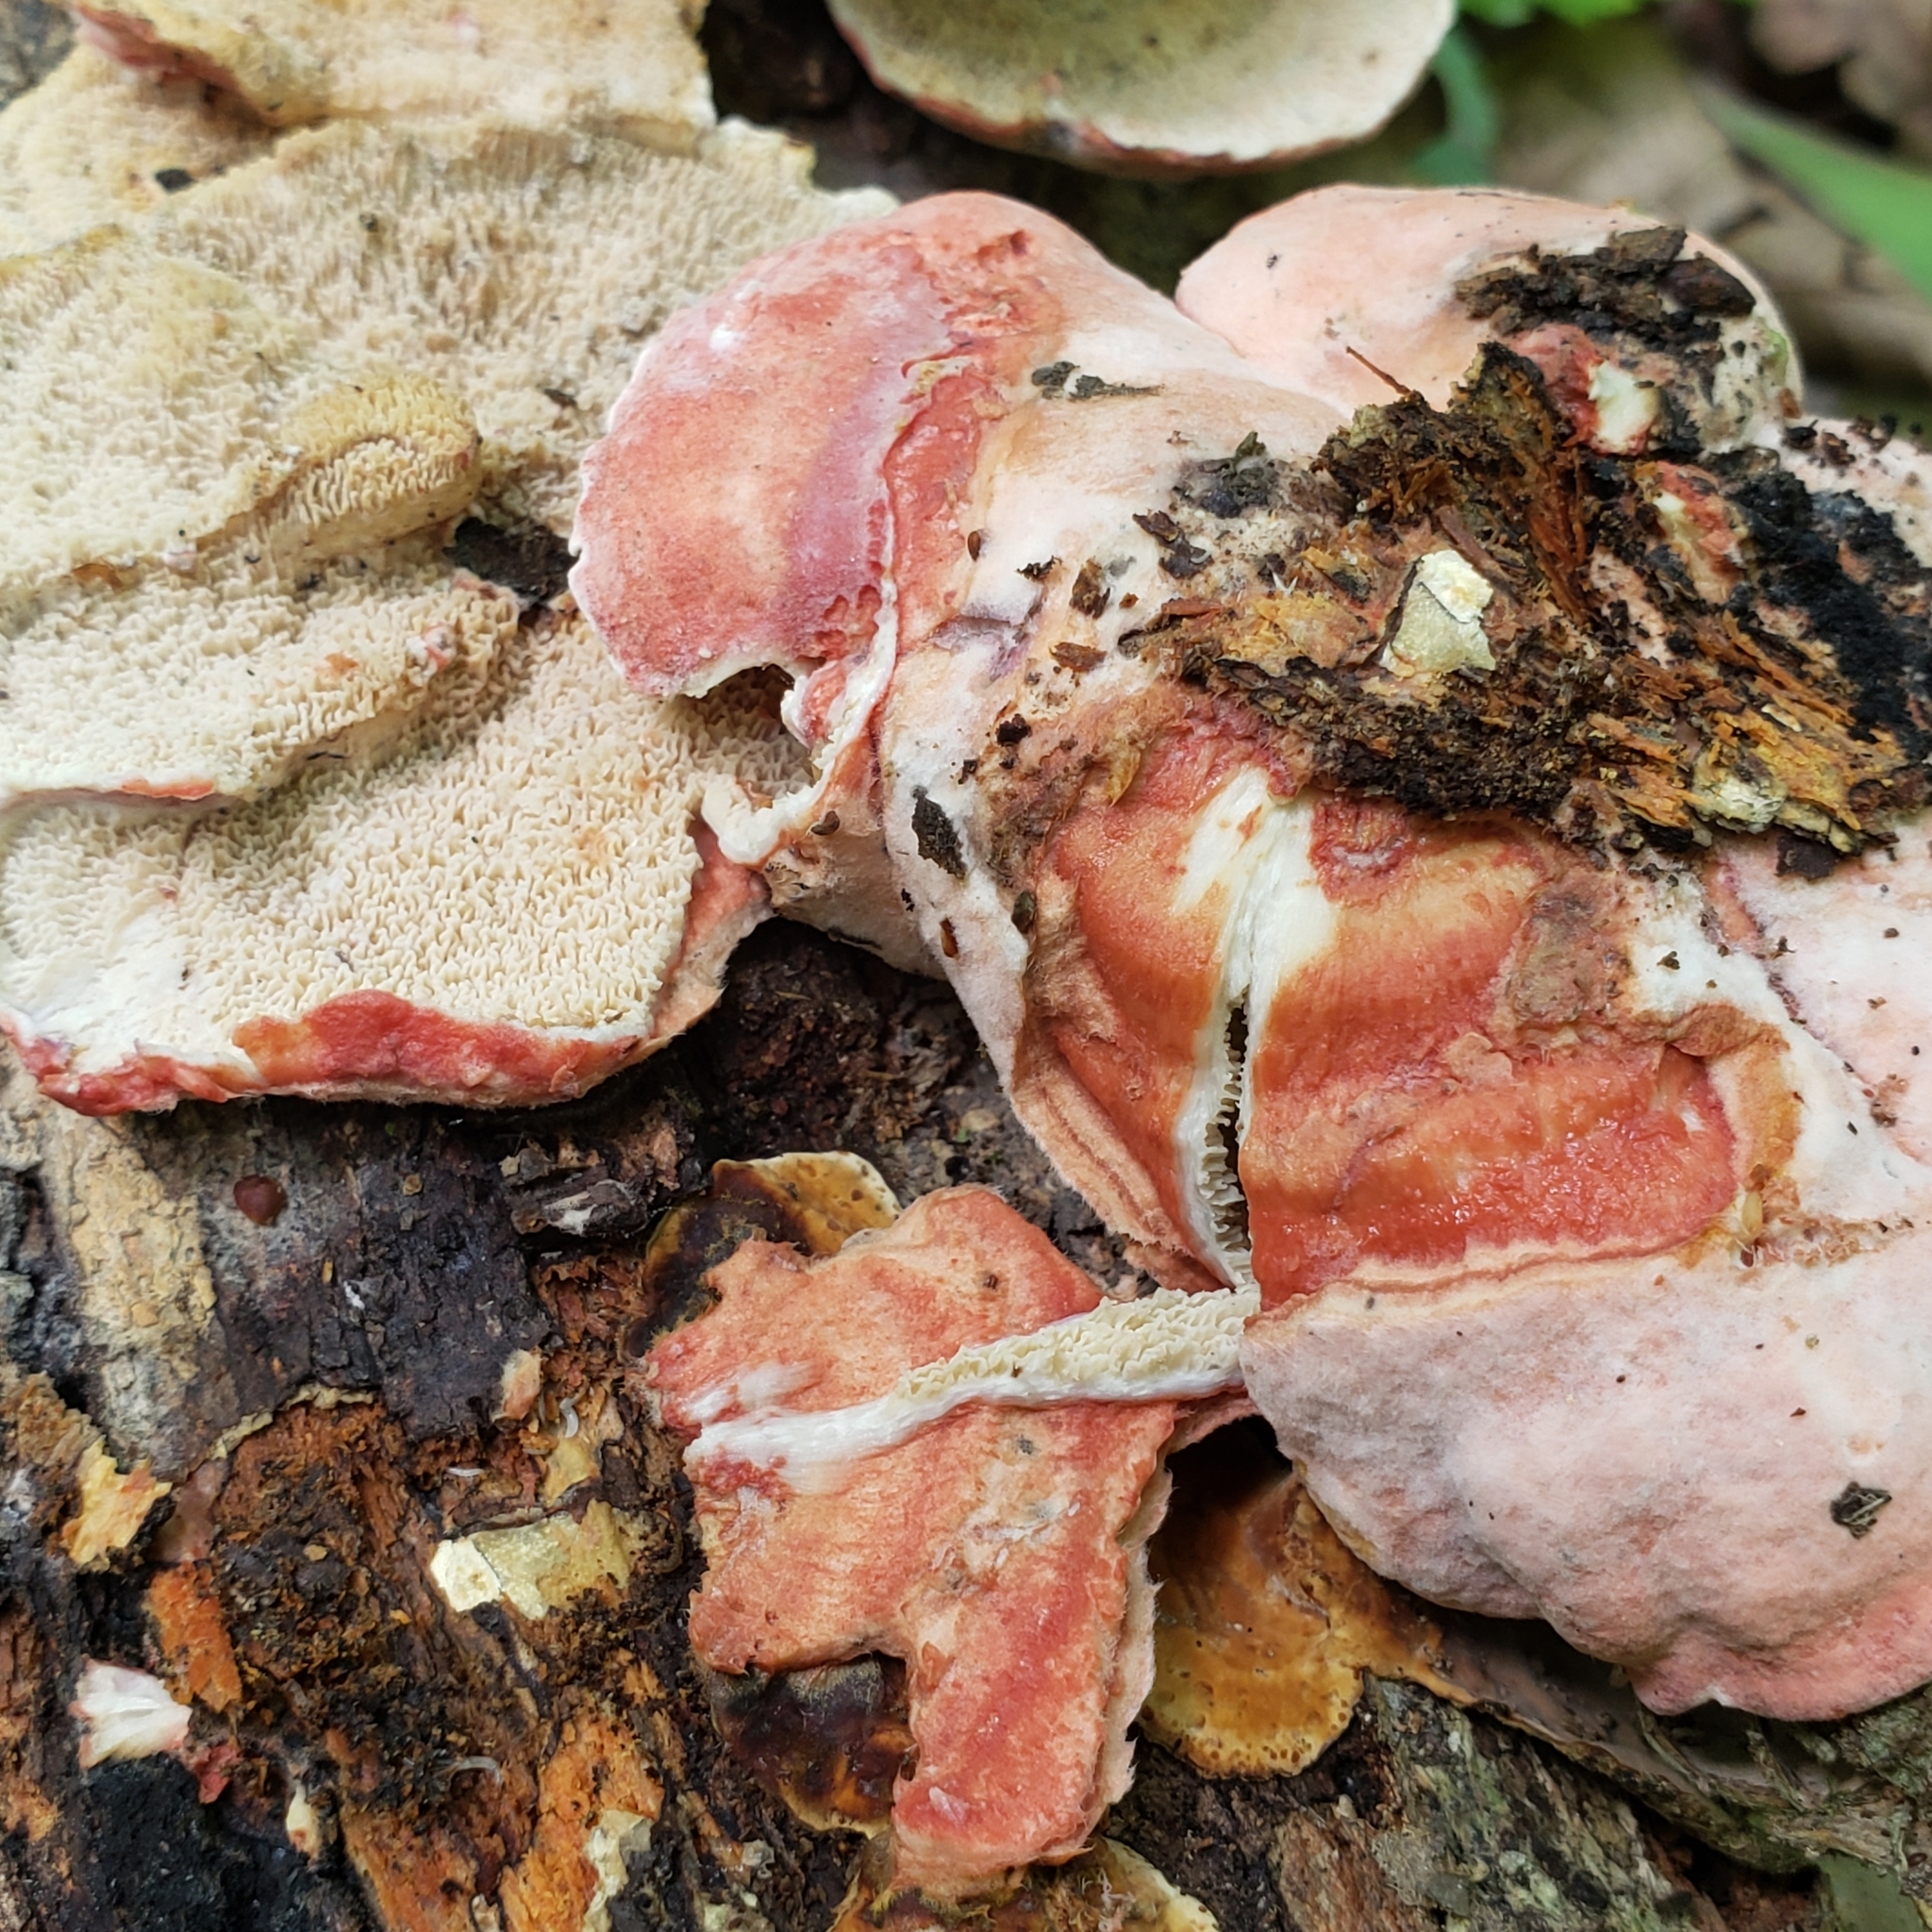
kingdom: Fungi
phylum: Basidiomycota
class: Agaricomycetes
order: Polyporales
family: Irpicaceae
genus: Byssomerulius
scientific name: Byssomerulius incarnatus
